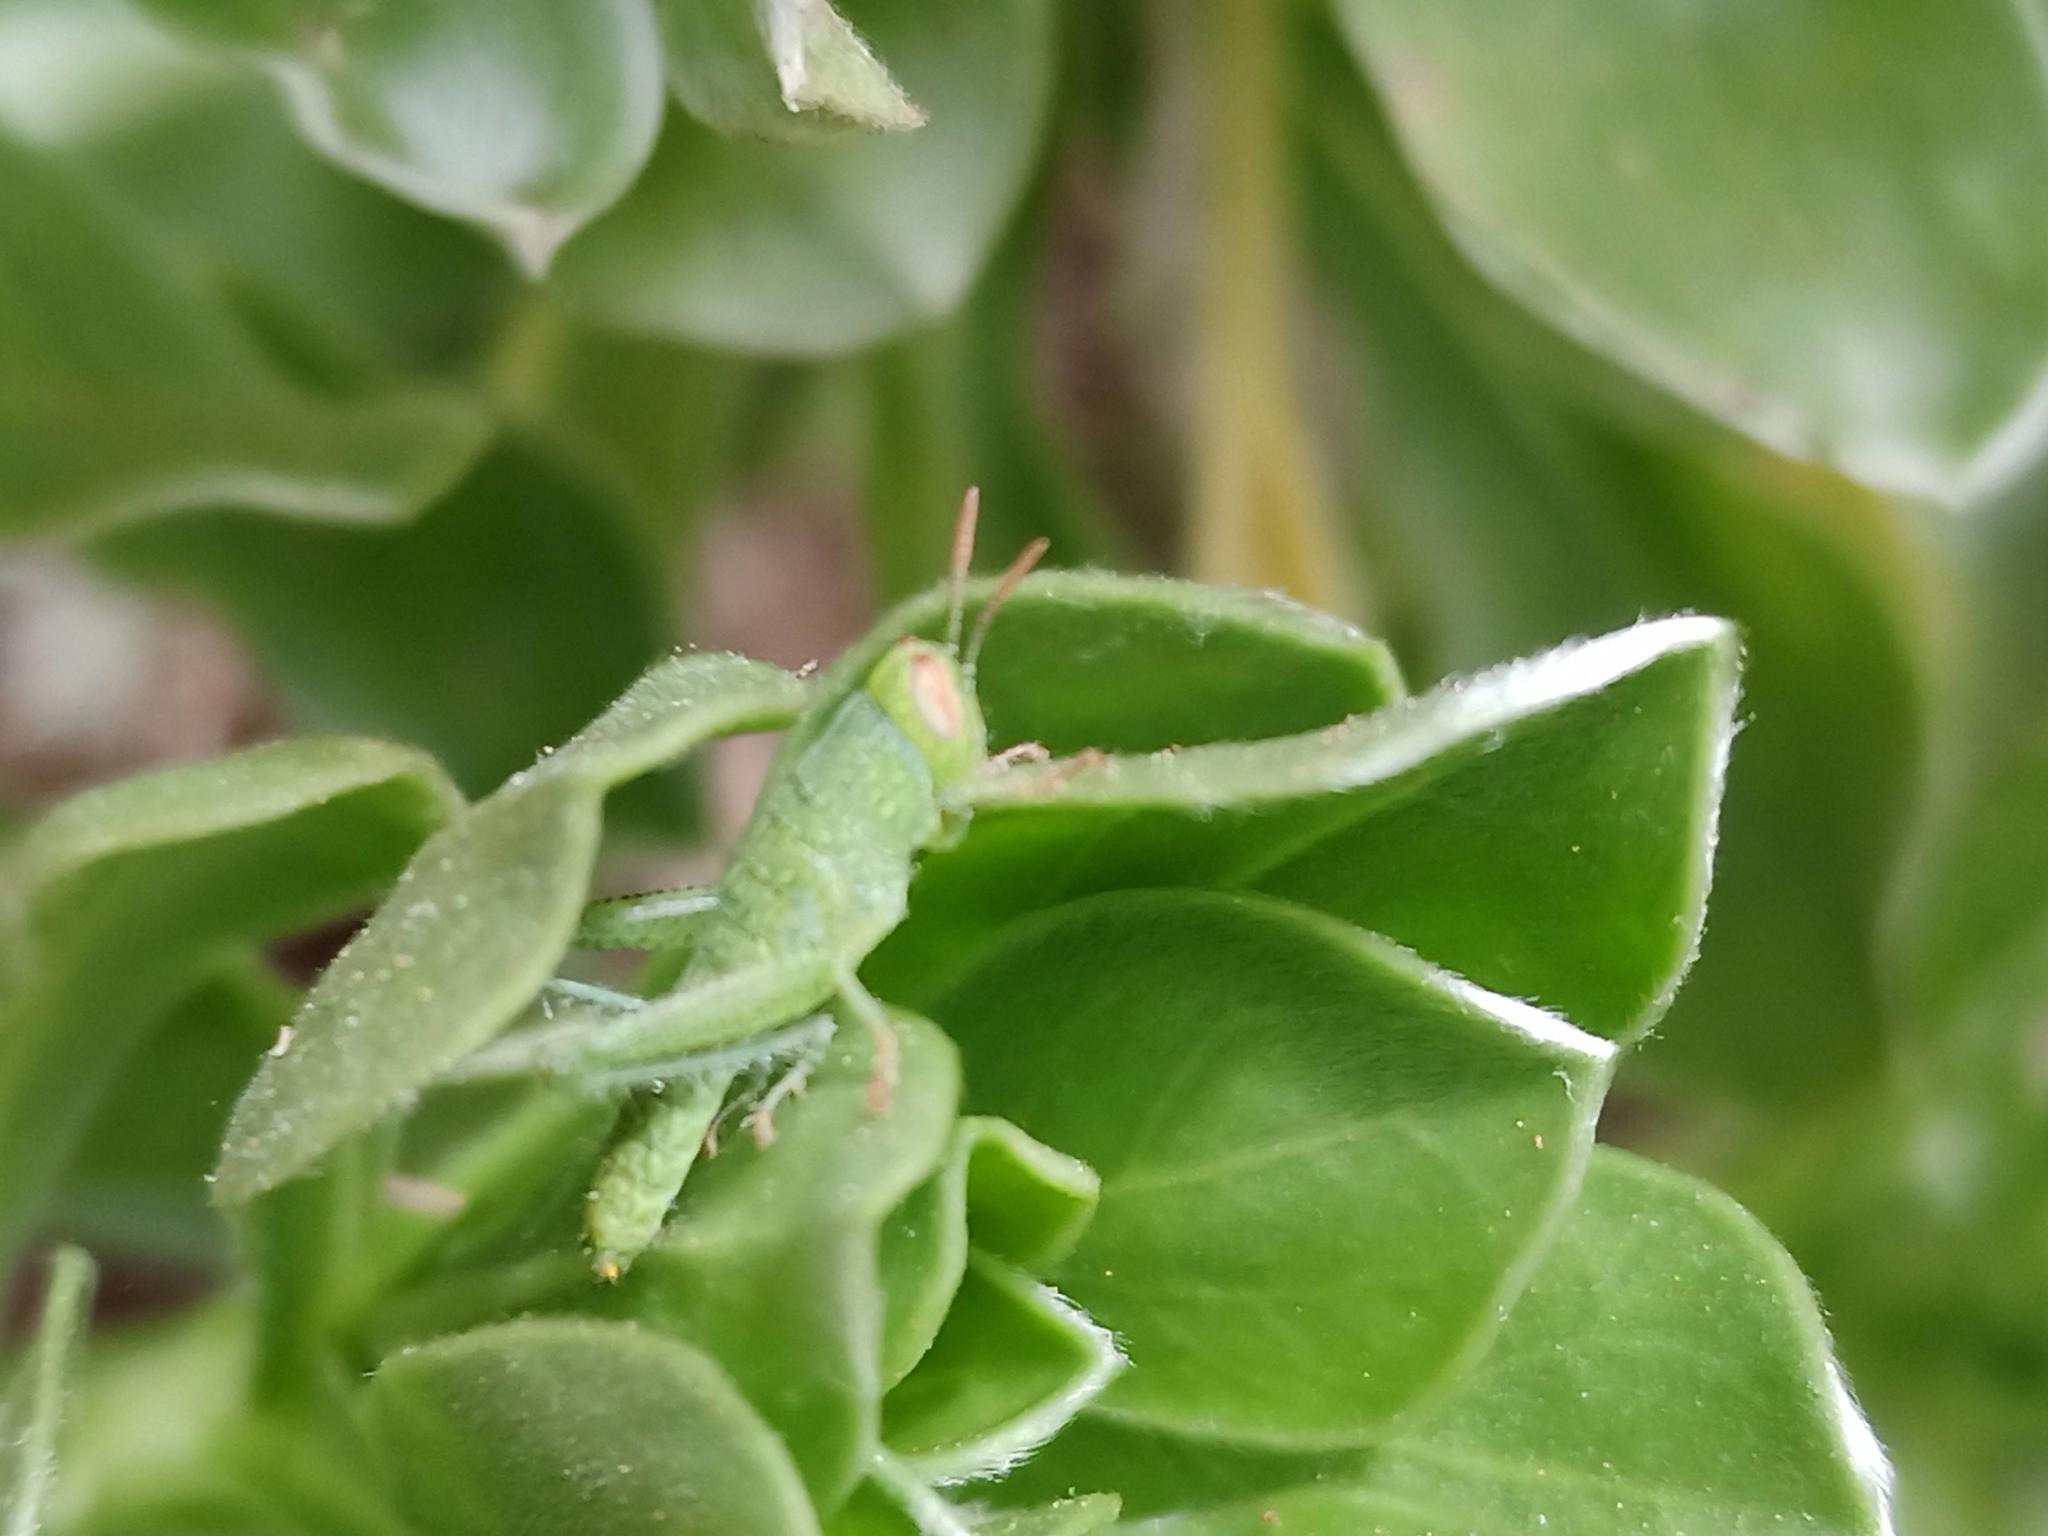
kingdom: Animalia
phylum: Arthropoda
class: Insecta
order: Orthoptera
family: Acrididae
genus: Anacridium
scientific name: Anacridium aegyptium
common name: Egyptian grasshopper
